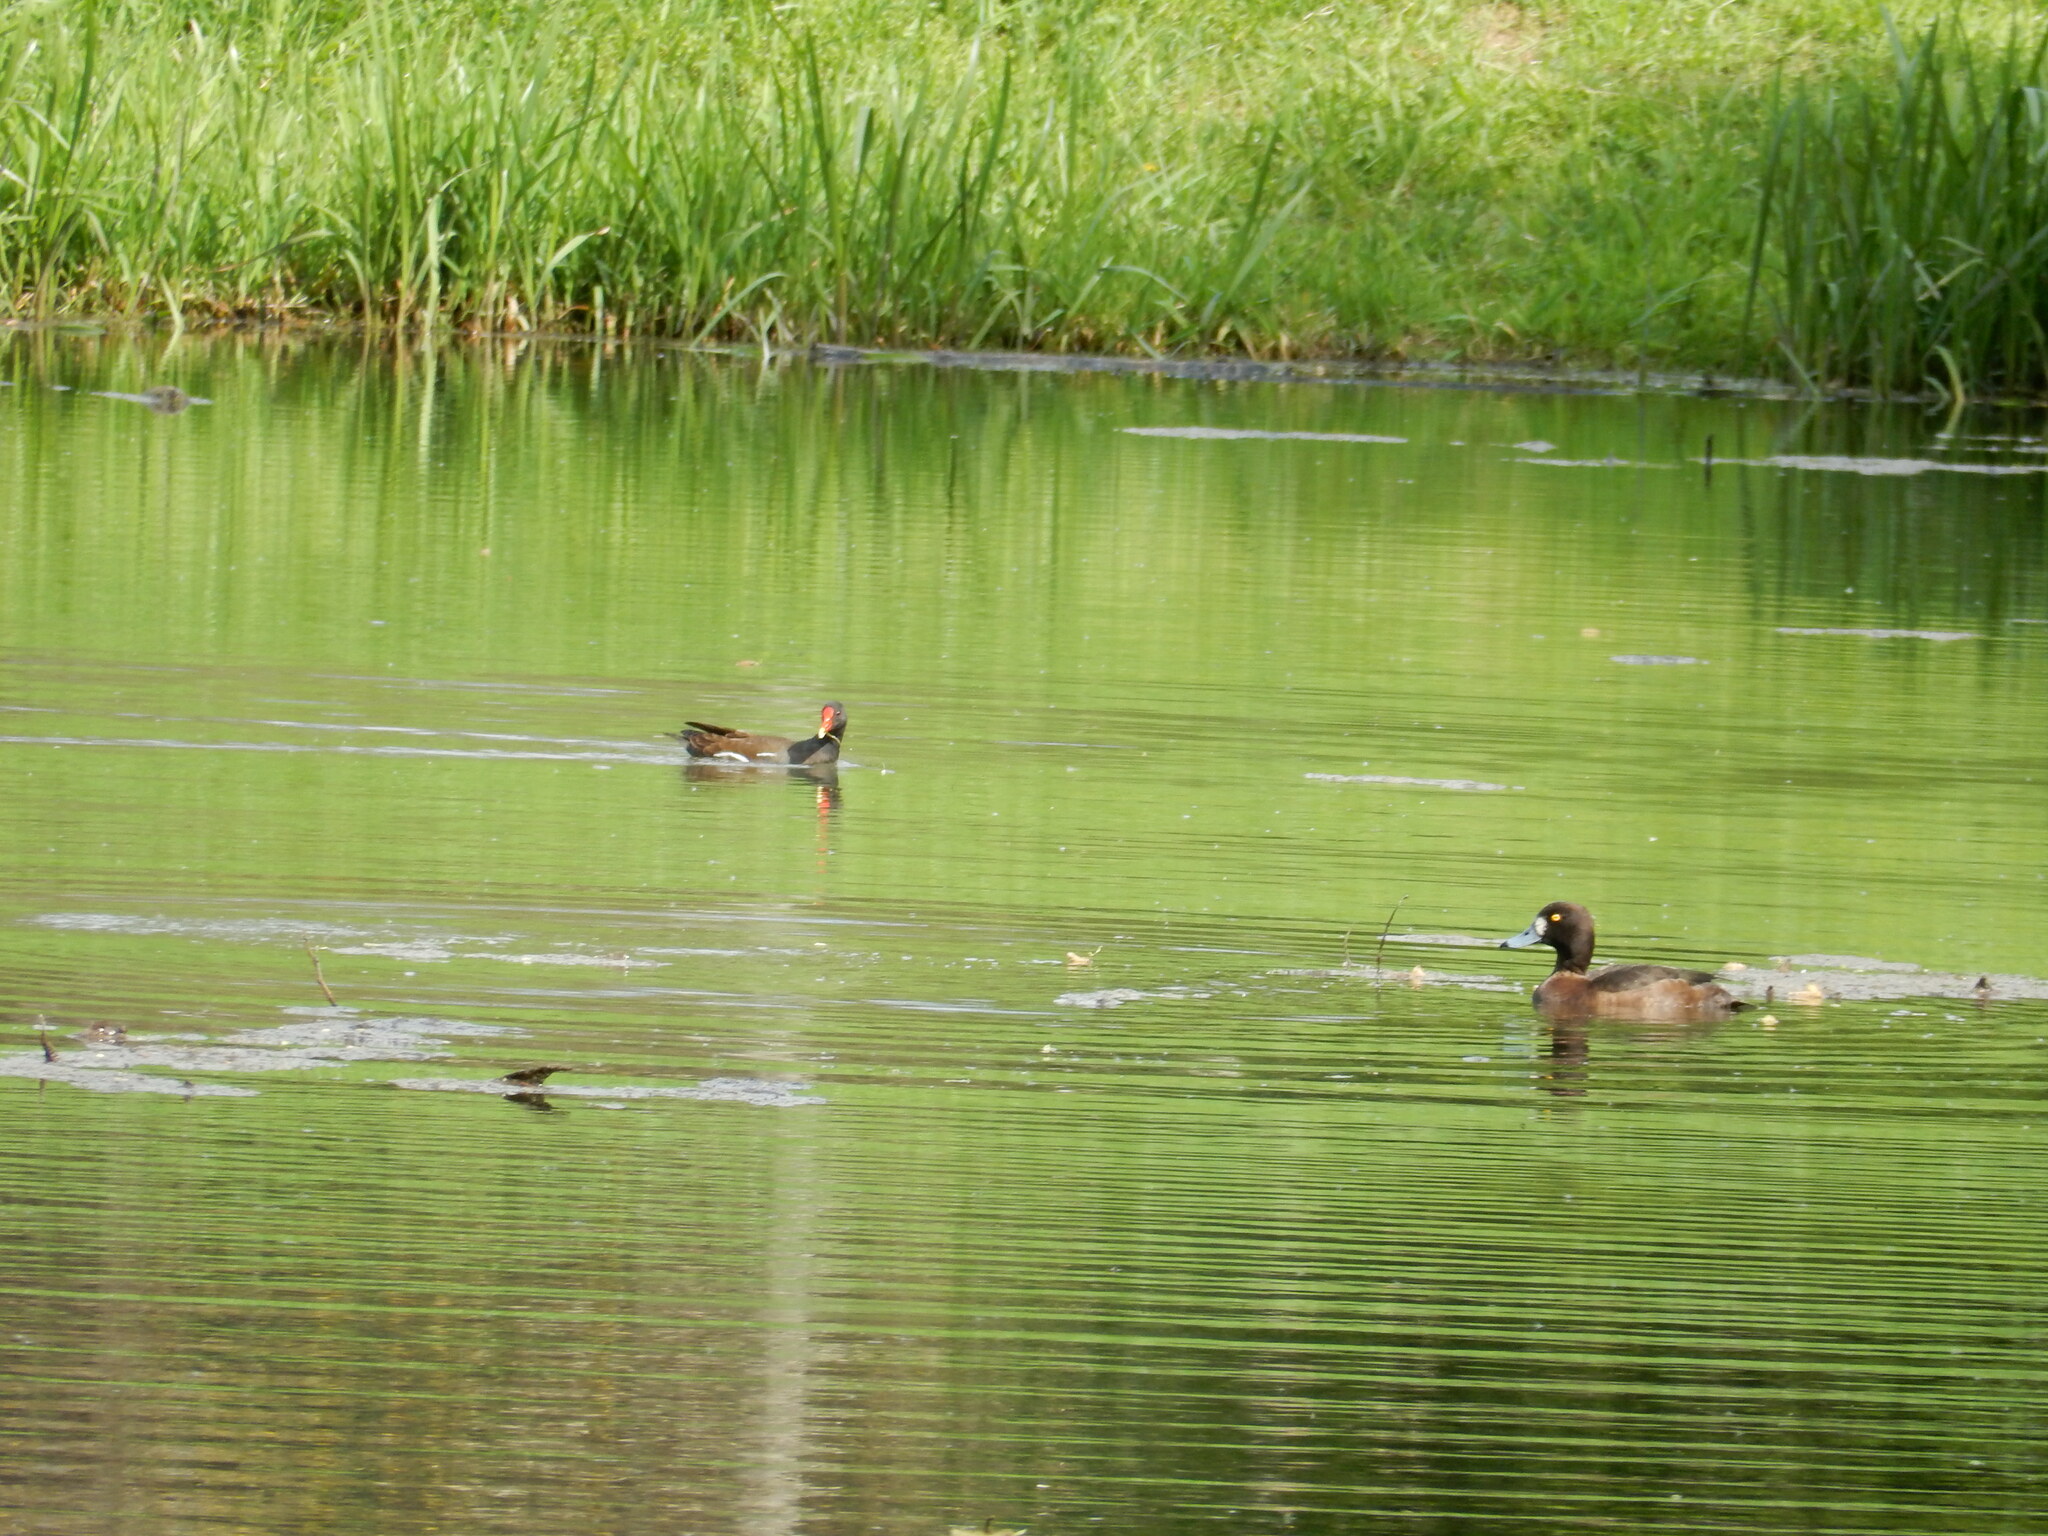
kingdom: Animalia
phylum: Chordata
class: Aves
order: Anseriformes
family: Anatidae
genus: Aythya
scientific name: Aythya fuligula
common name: Tufted duck
